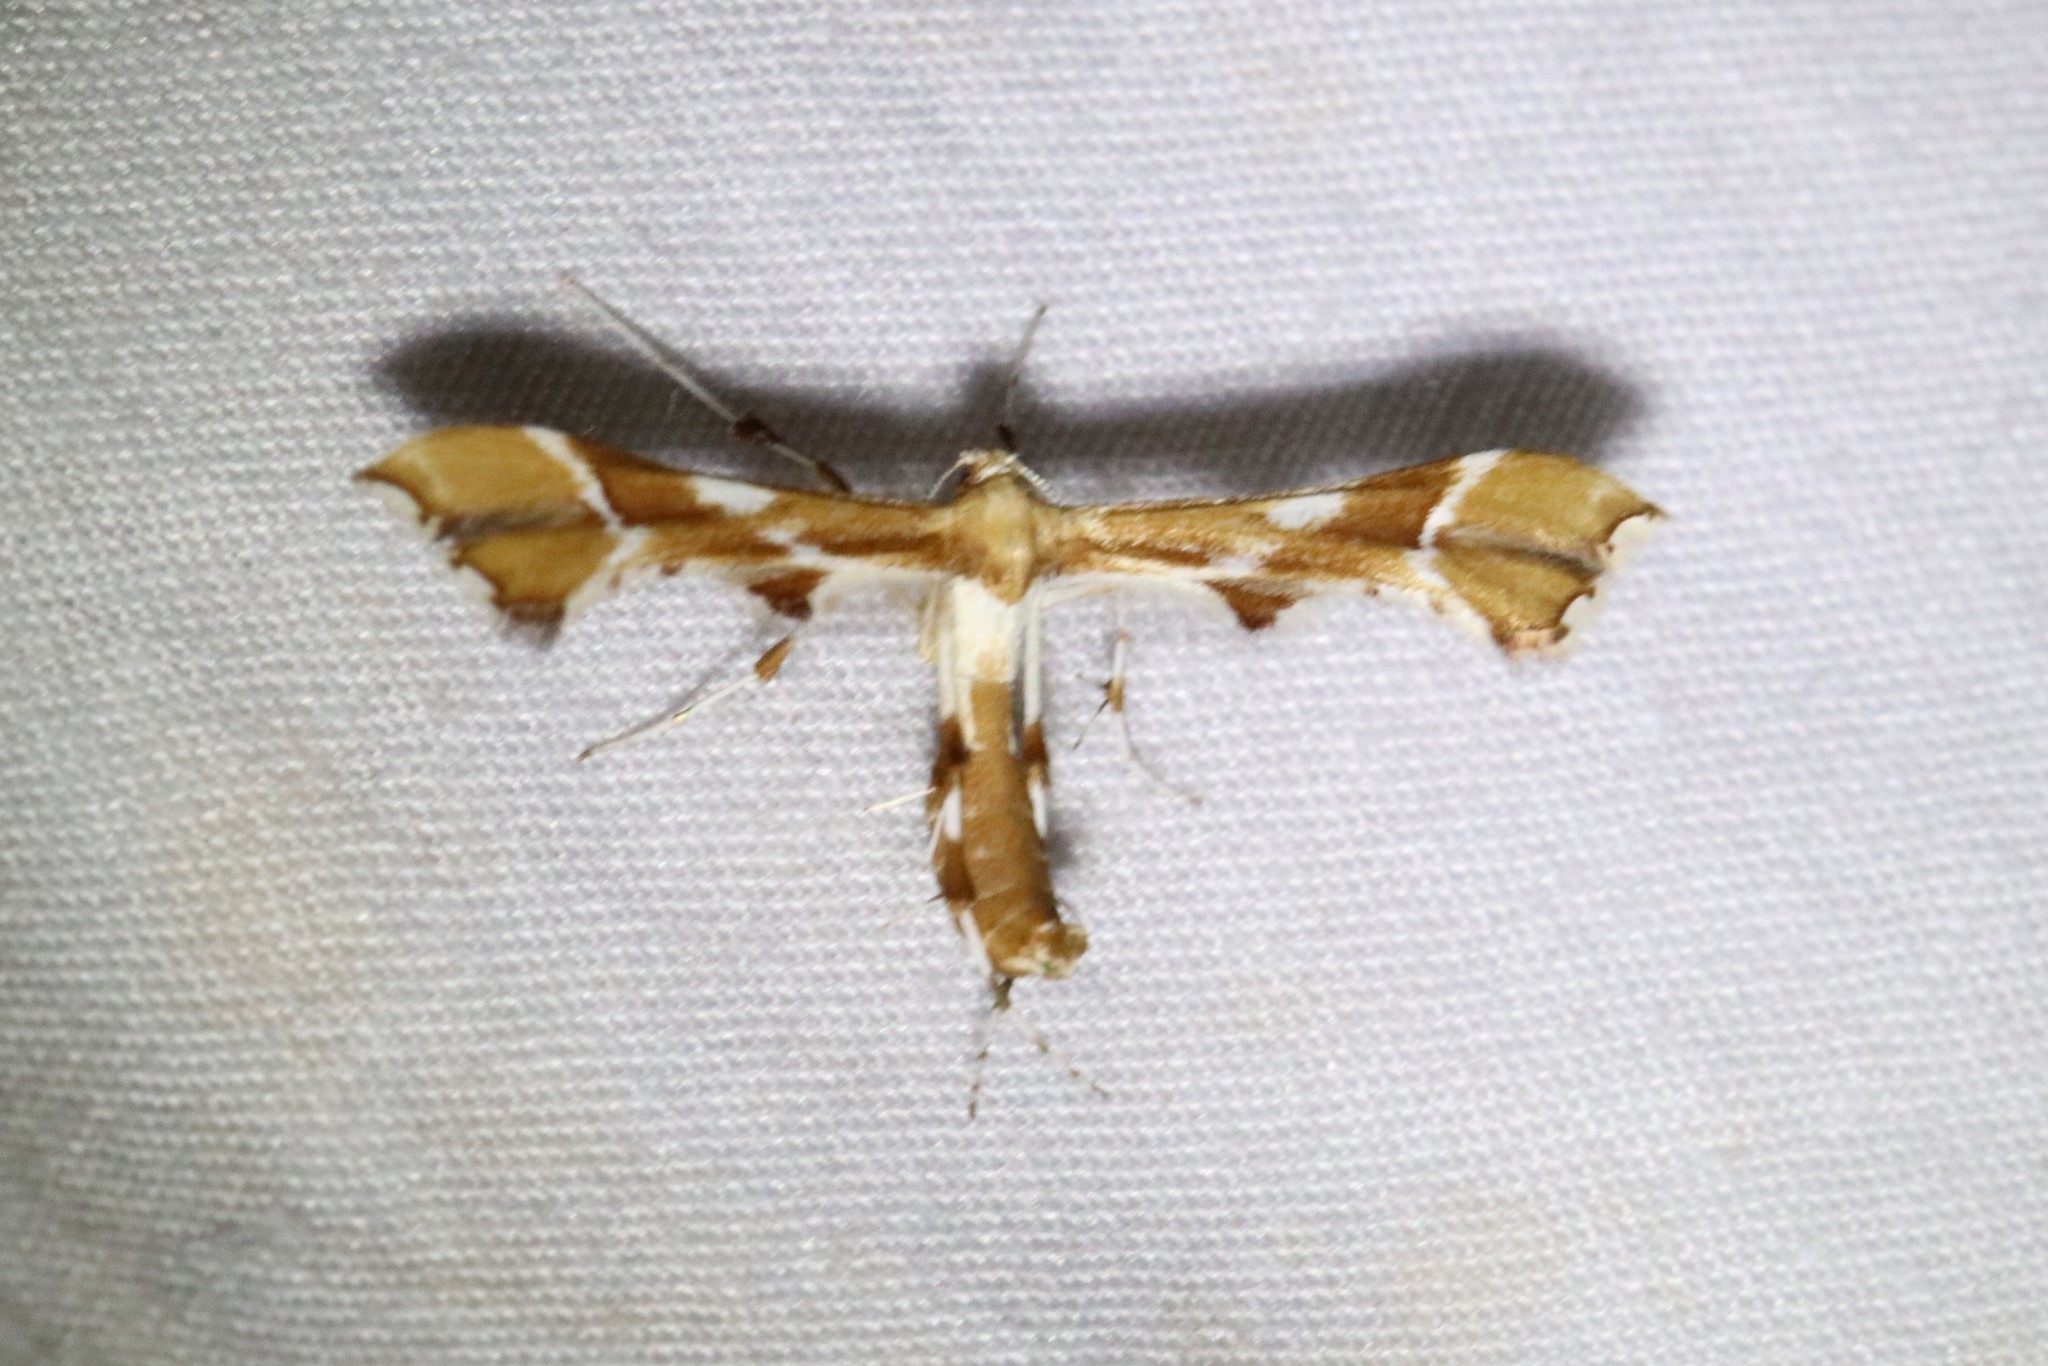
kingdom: Animalia
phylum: Arthropoda
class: Insecta
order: Lepidoptera
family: Pterophoridae
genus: Cnaemidophorus
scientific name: Cnaemidophorus rhododactyla
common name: Rose plume
